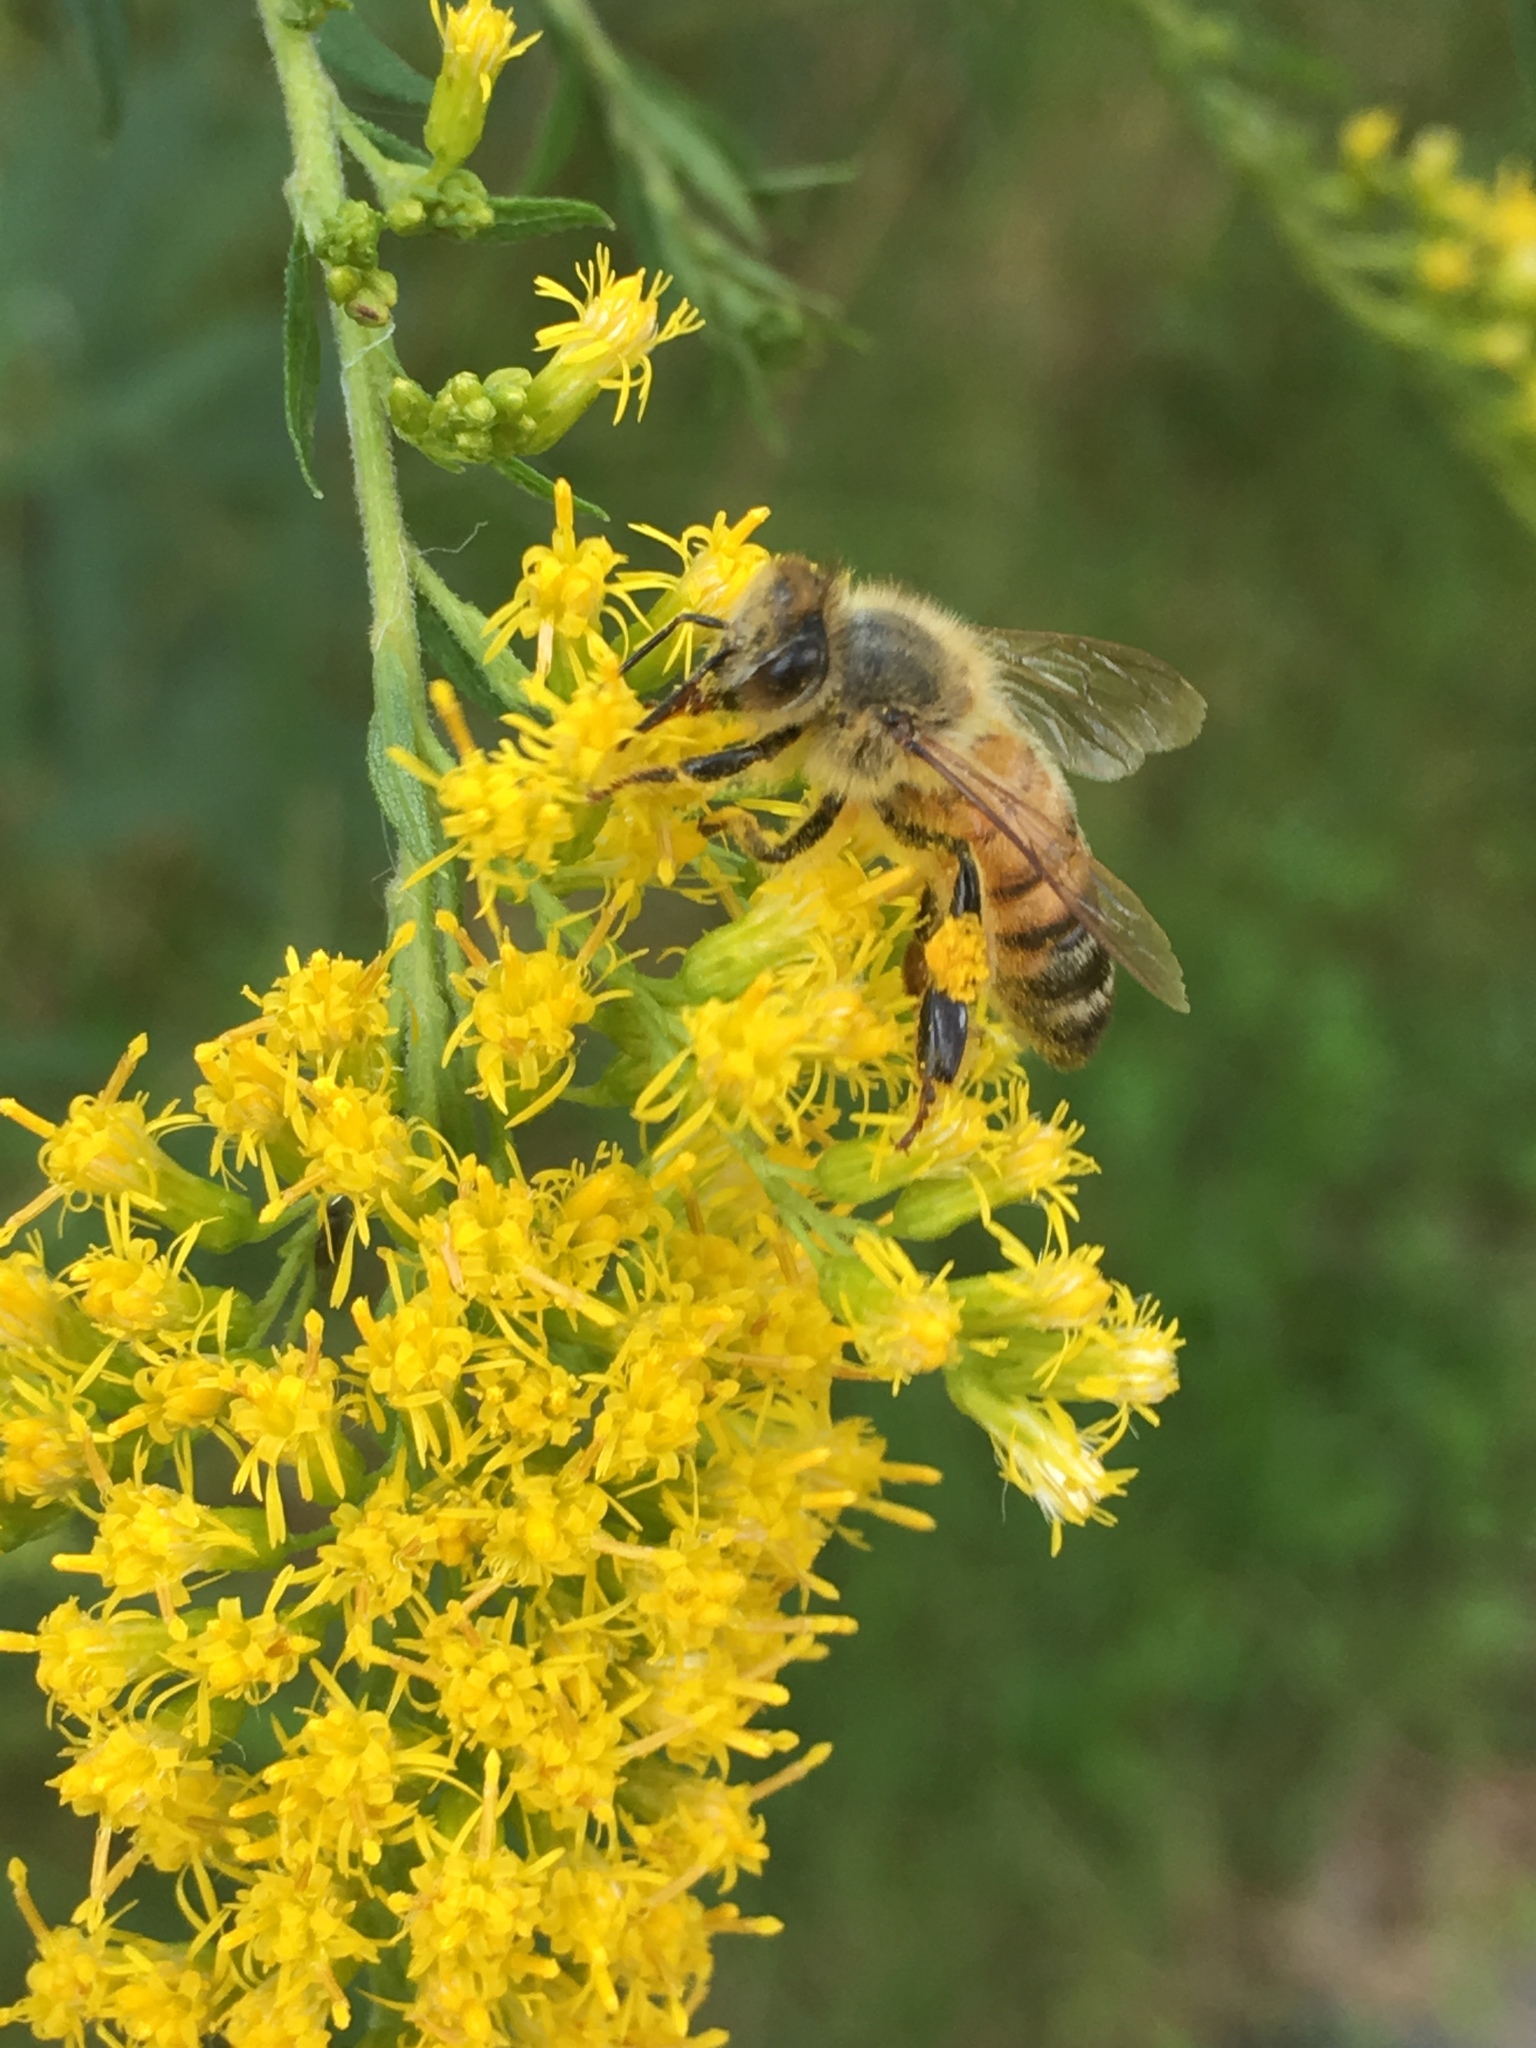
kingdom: Animalia
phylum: Arthropoda
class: Insecta
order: Hymenoptera
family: Apidae
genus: Apis
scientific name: Apis mellifera
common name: Honey bee
